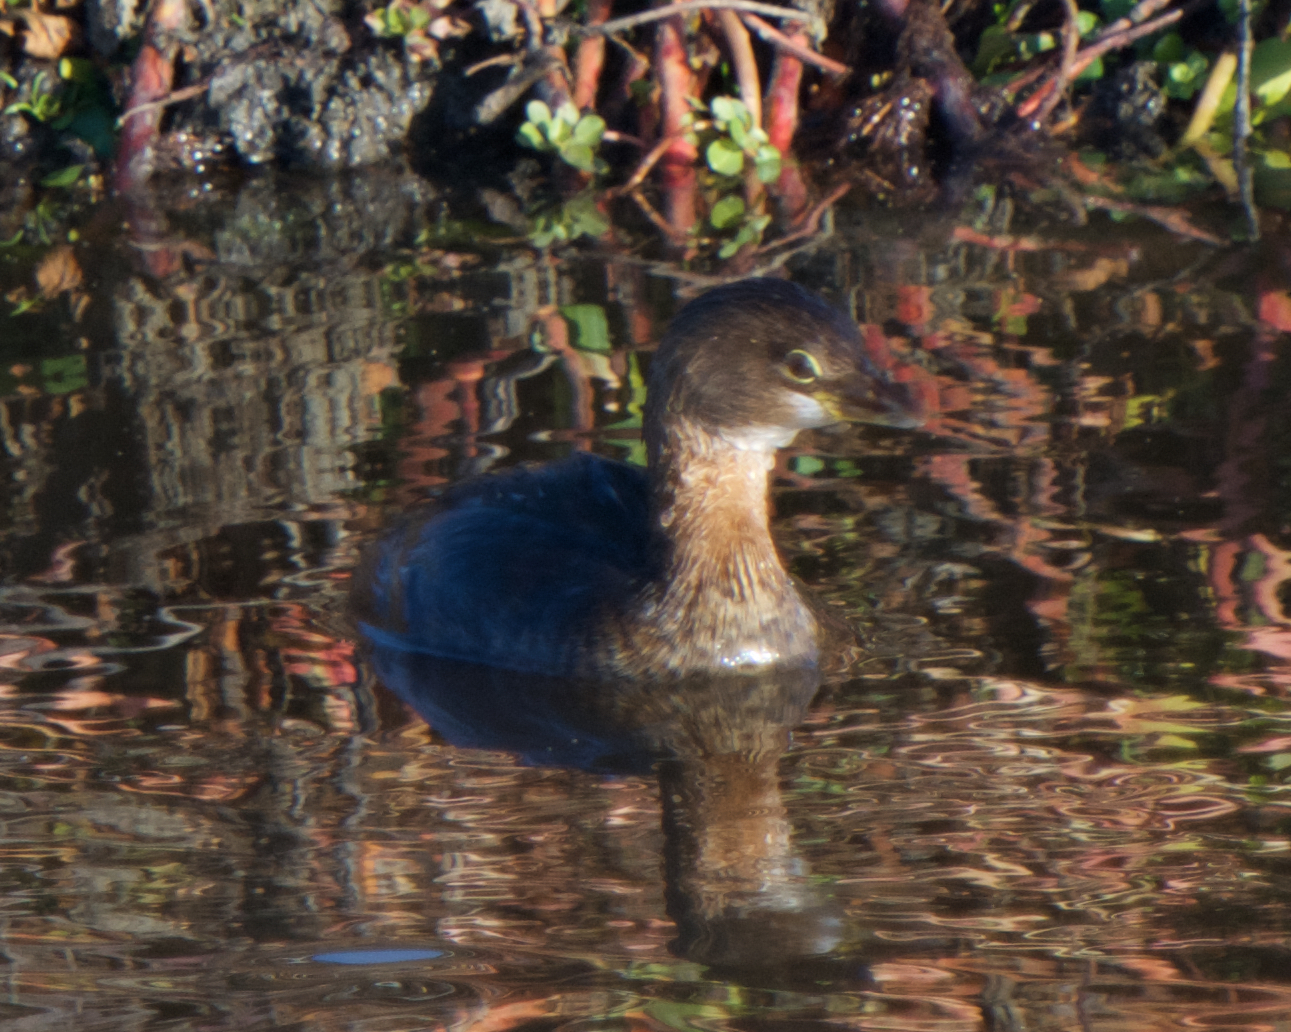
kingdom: Animalia
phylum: Chordata
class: Aves
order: Podicipediformes
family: Podicipedidae
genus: Podilymbus
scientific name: Podilymbus podiceps
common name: Pied-billed grebe
